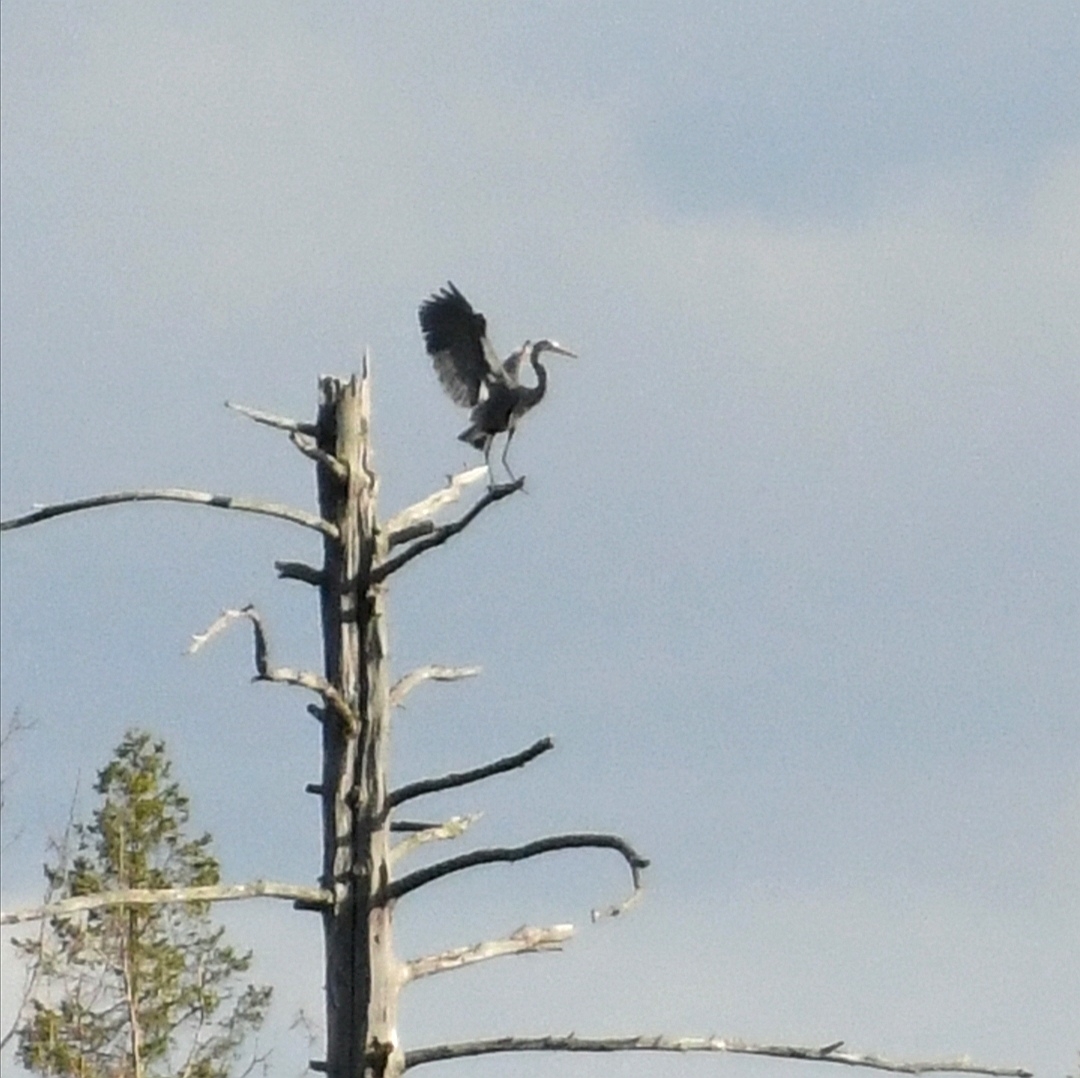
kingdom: Animalia
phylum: Chordata
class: Aves
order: Pelecaniformes
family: Ardeidae
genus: Ardea
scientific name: Ardea herodias
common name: Great blue heron
